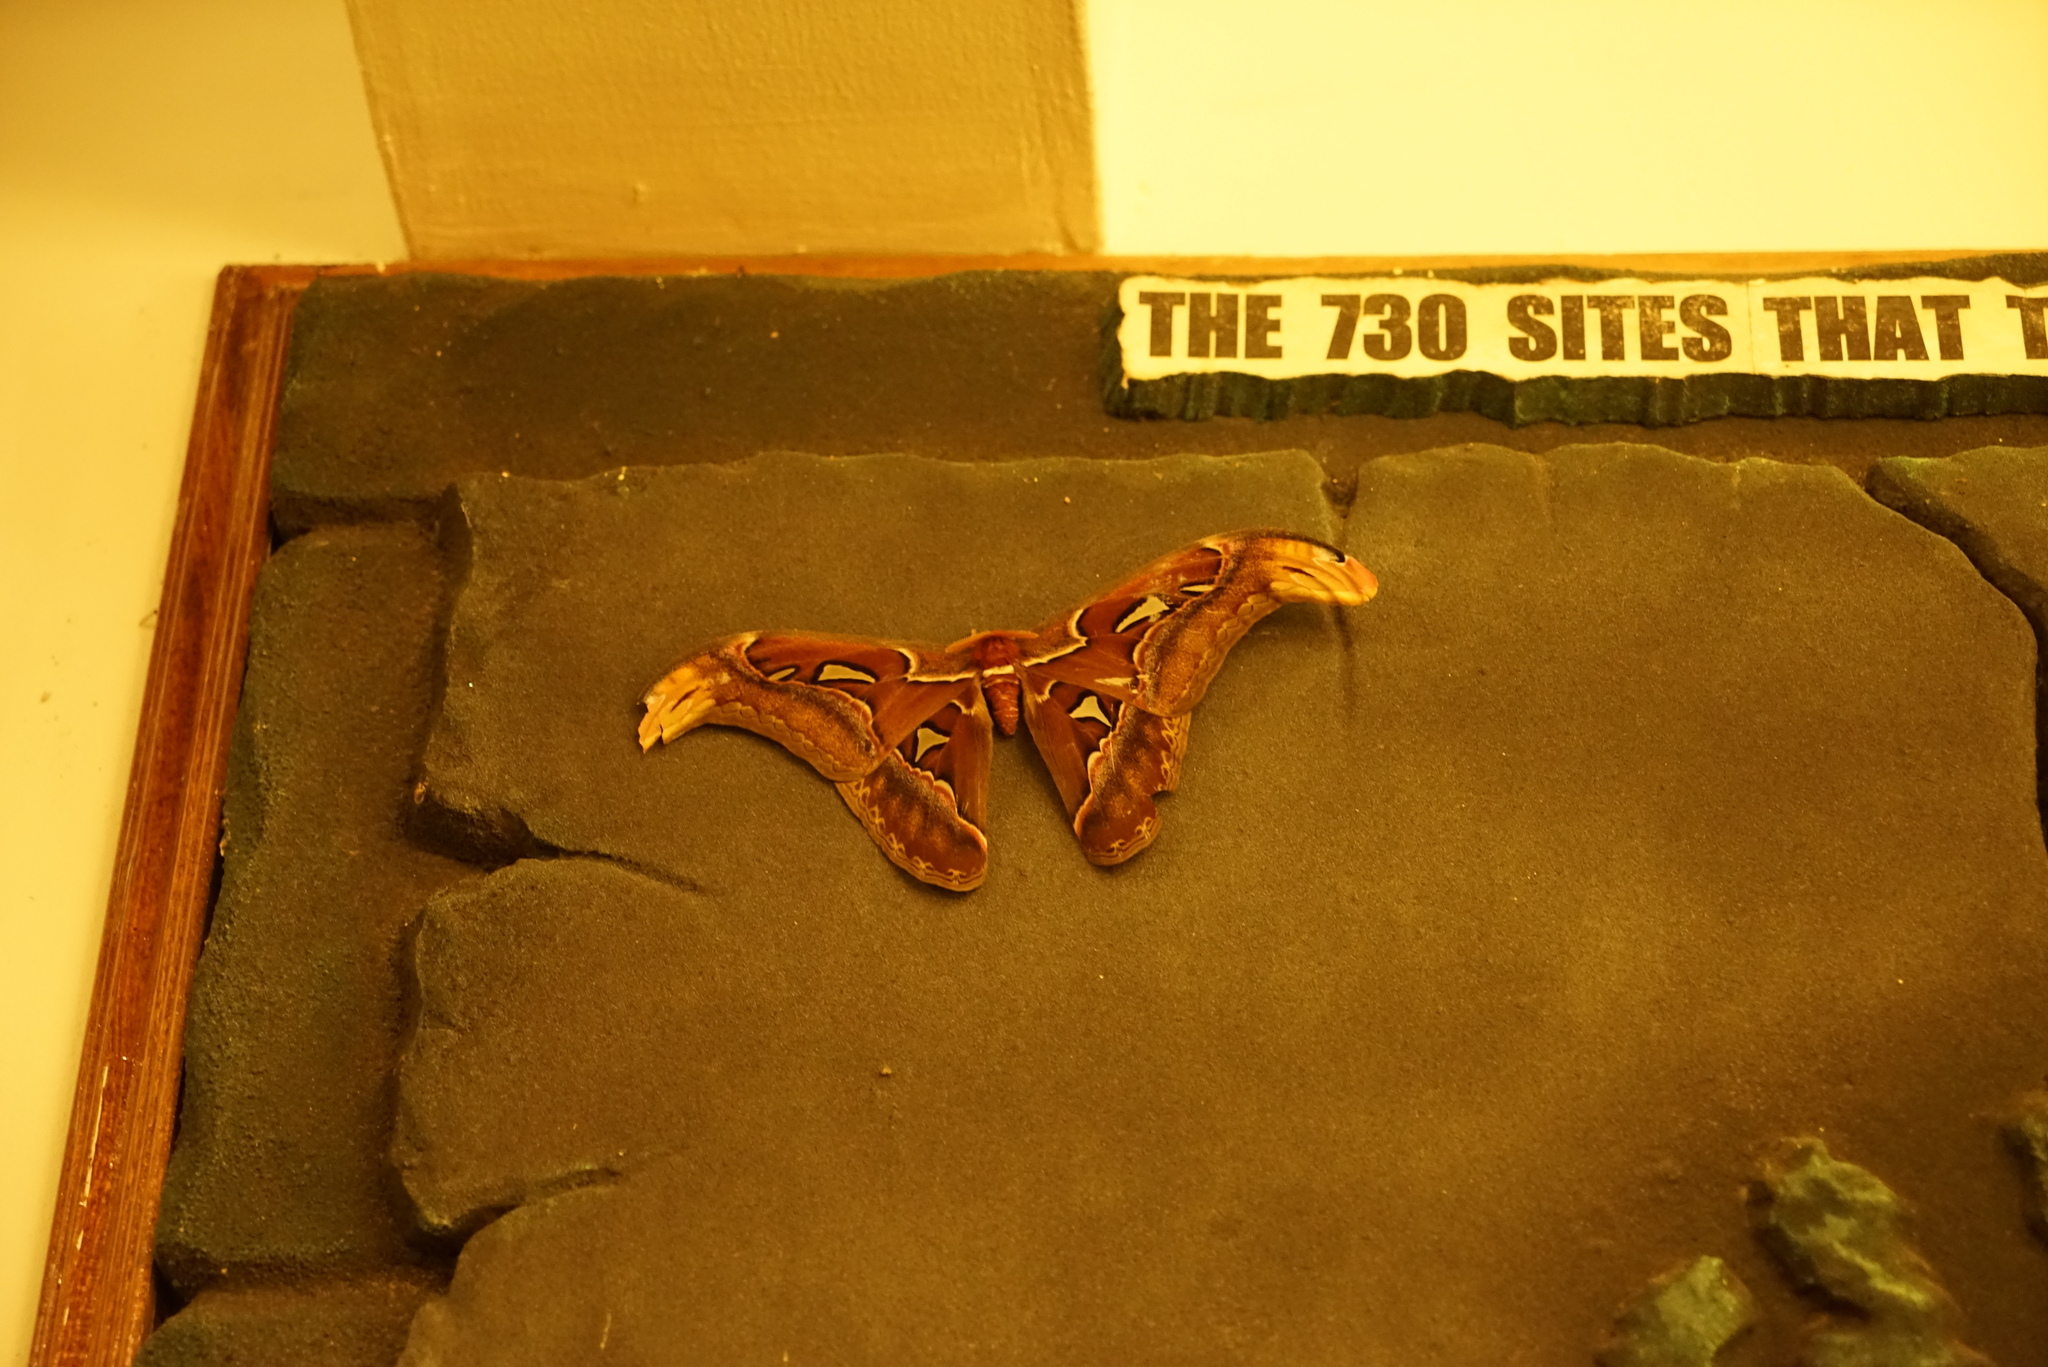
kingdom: Animalia
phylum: Arthropoda
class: Insecta
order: Lepidoptera
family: Saturniidae
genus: Attacus
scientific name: Attacus atlas
